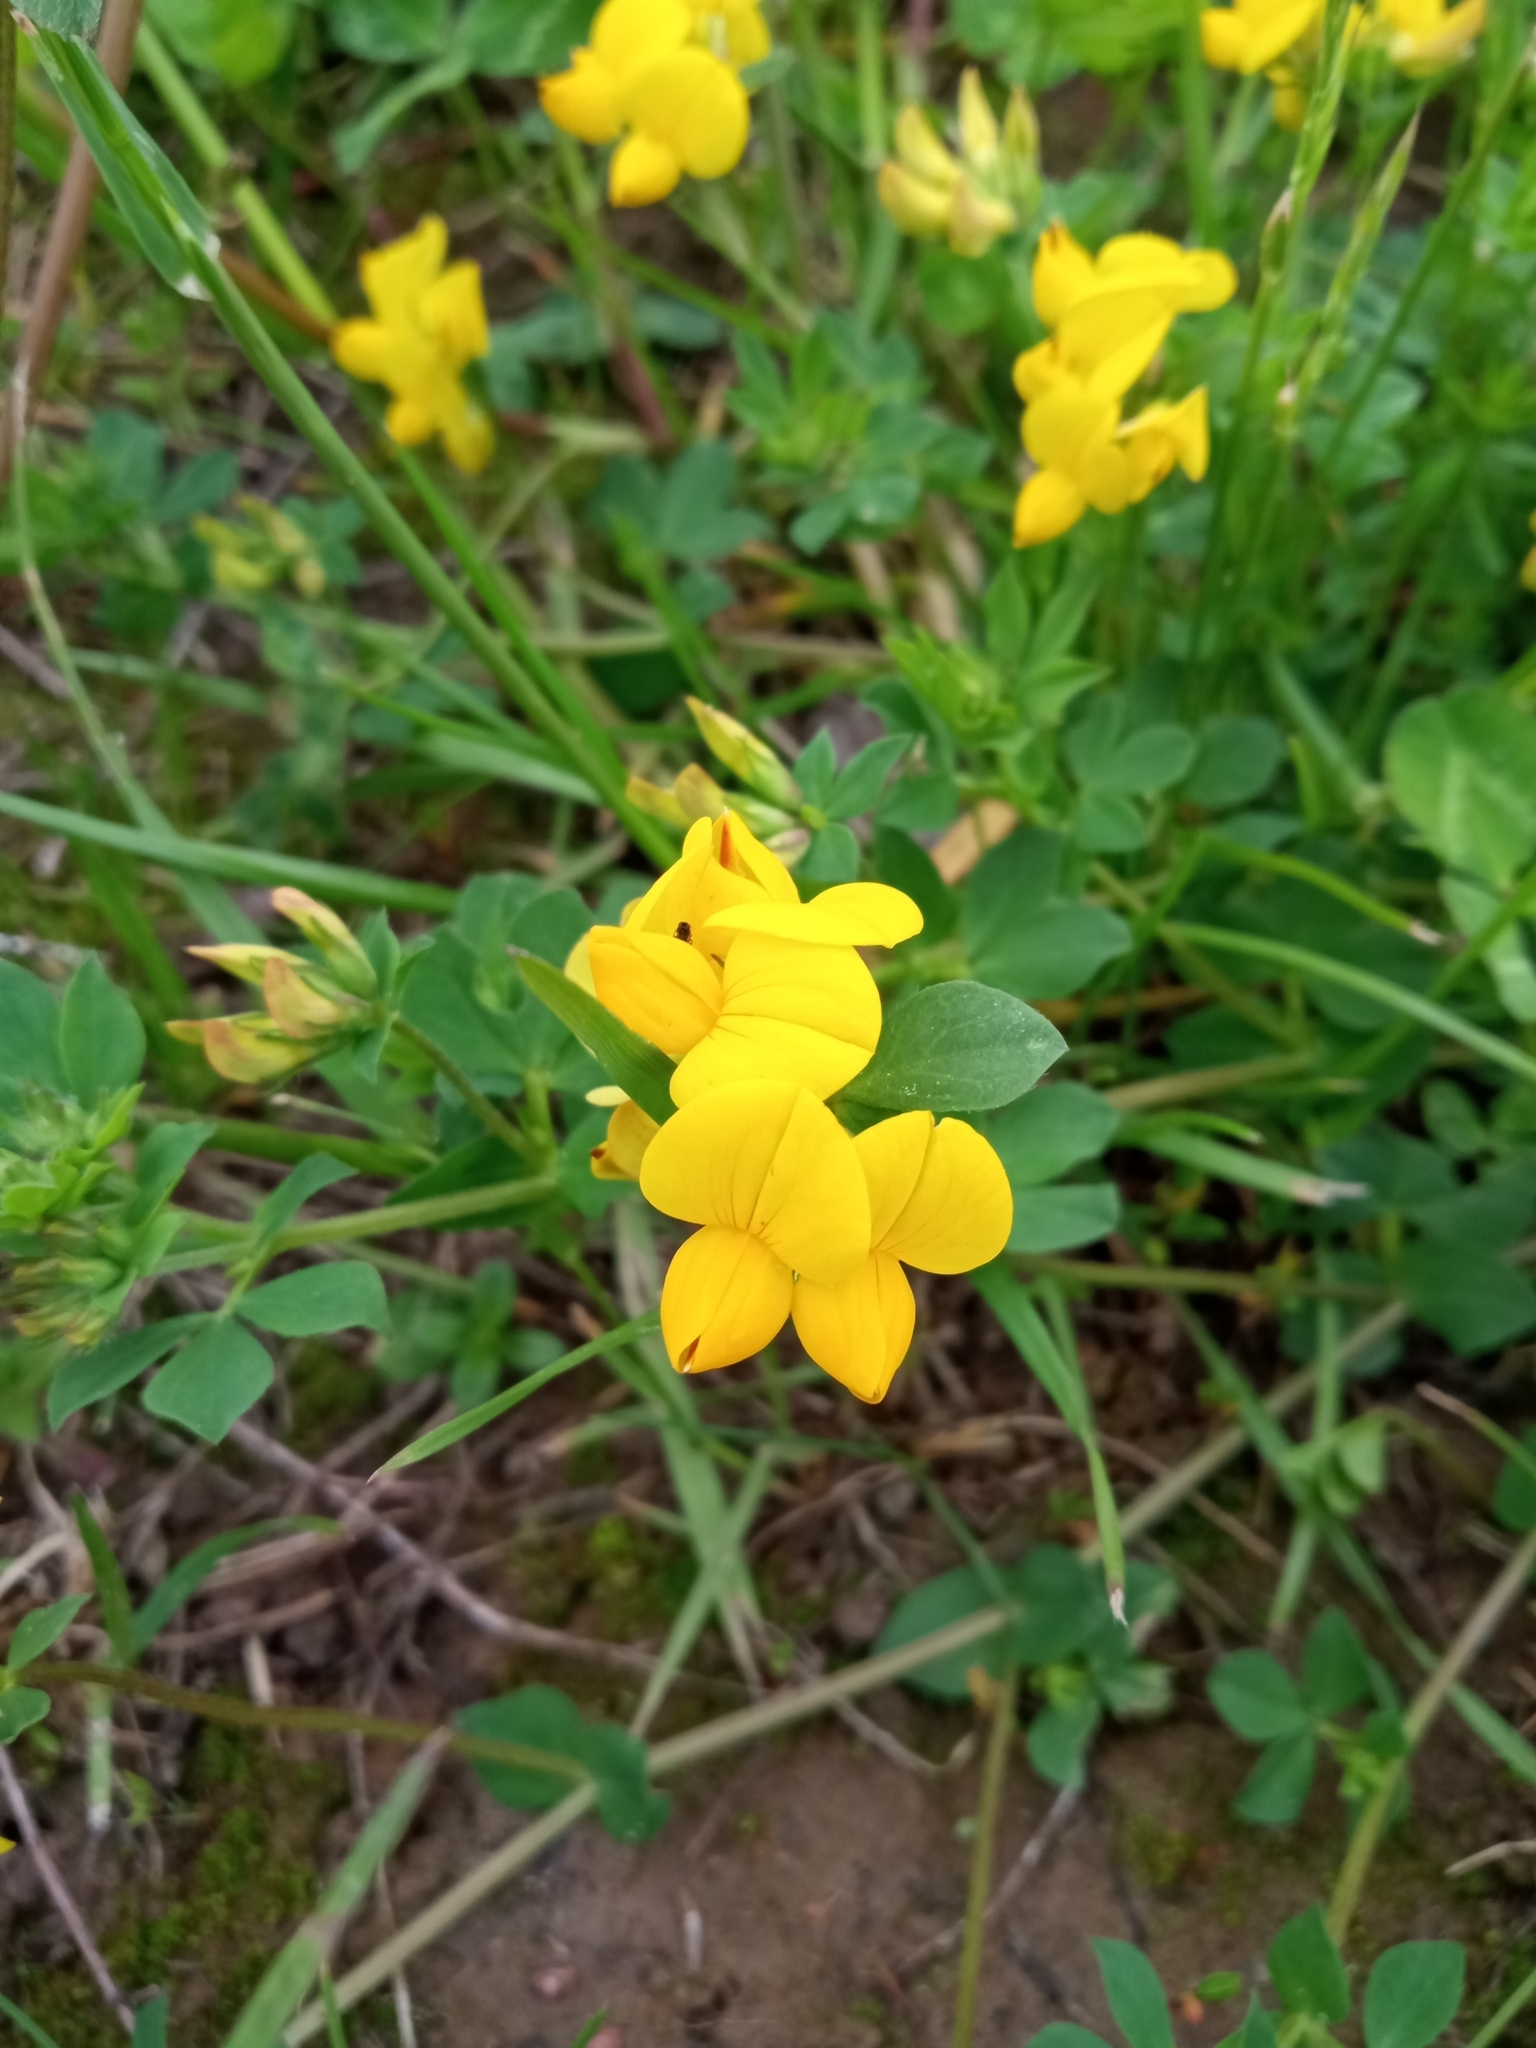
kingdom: Plantae
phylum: Tracheophyta
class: Magnoliopsida
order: Fabales
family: Fabaceae
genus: Lotus
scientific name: Lotus corniculatus
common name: Common bird's-foot-trefoil
